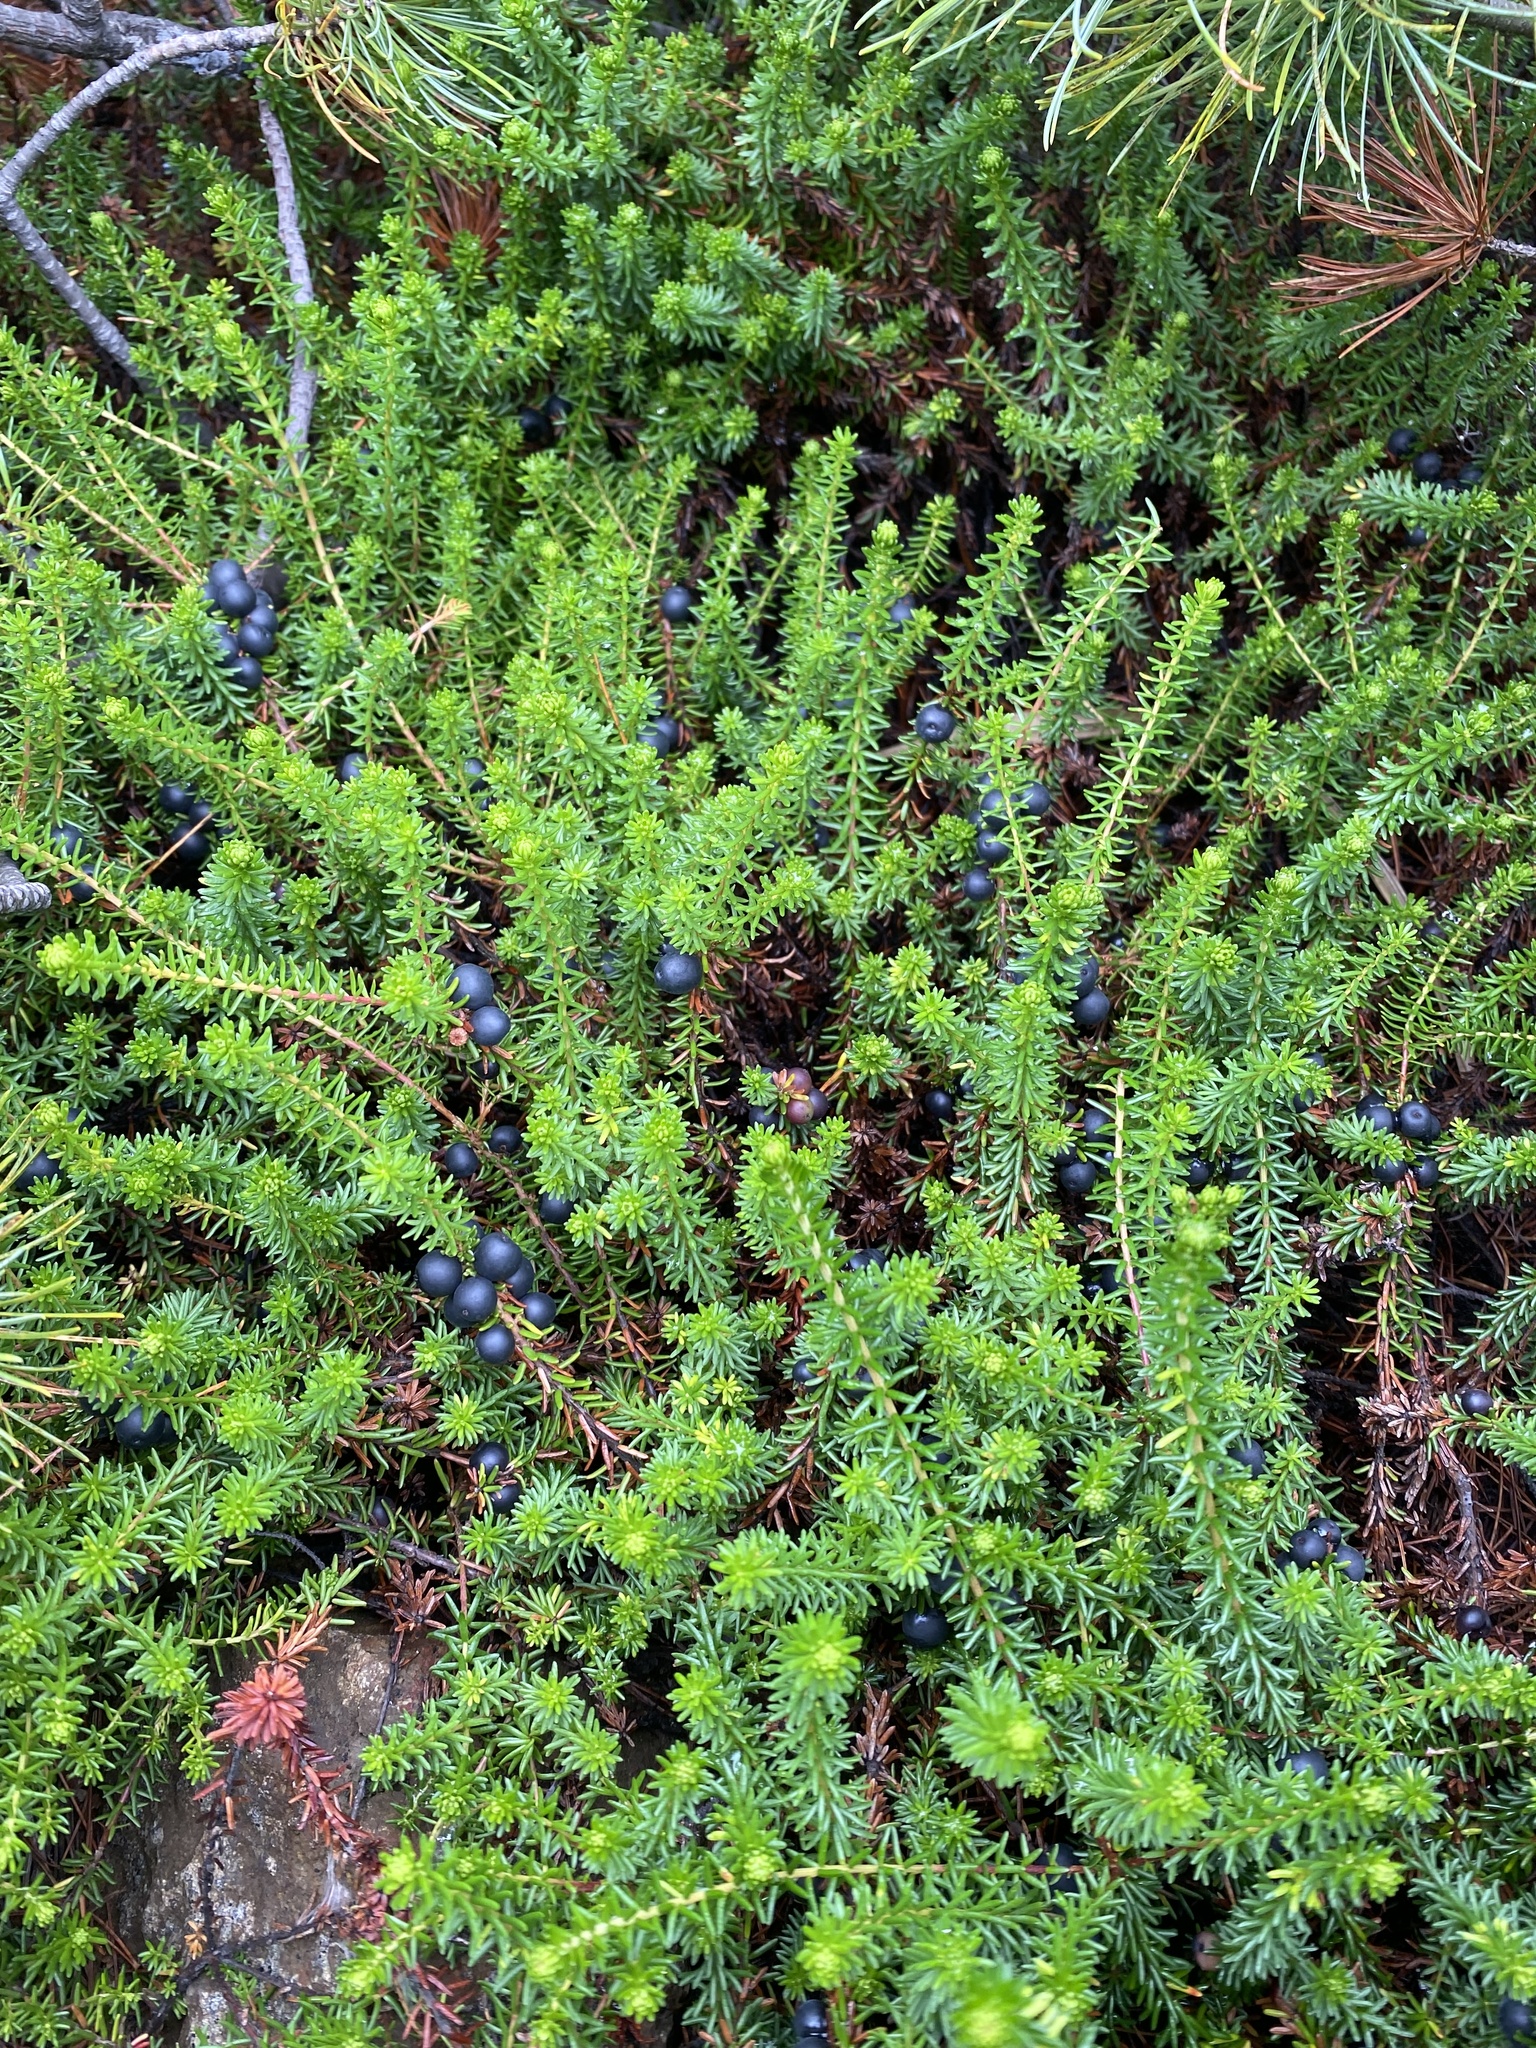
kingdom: Plantae
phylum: Tracheophyta
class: Magnoliopsida
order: Ericales
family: Ericaceae
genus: Empetrum
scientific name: Empetrum nigrum
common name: Black crowberry
